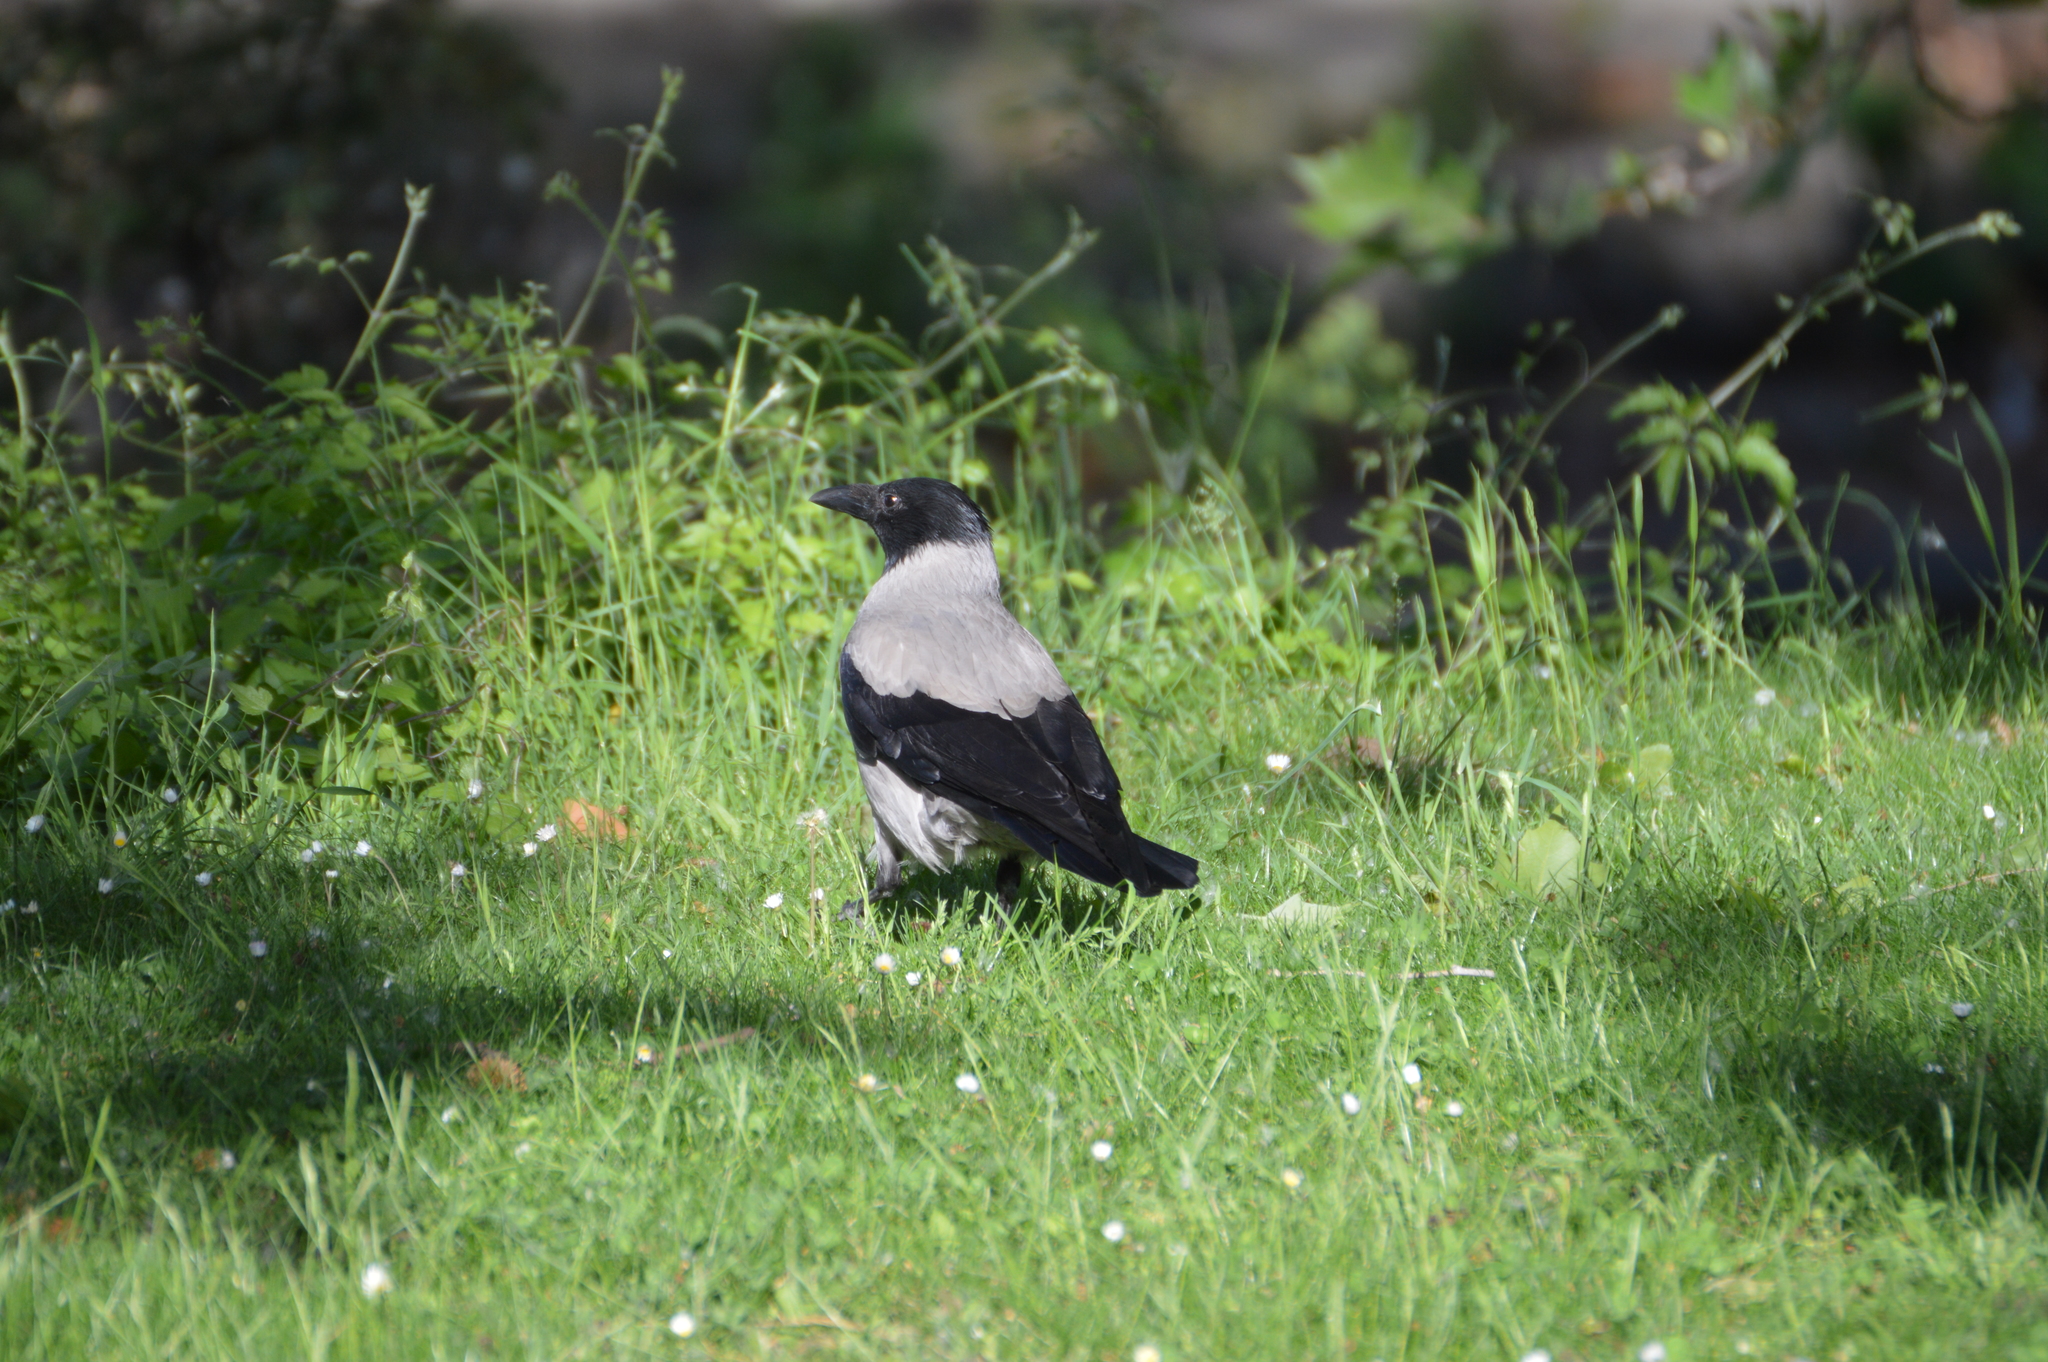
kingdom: Animalia
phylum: Chordata
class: Aves
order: Passeriformes
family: Corvidae
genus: Corvus
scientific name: Corvus cornix
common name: Hooded crow
